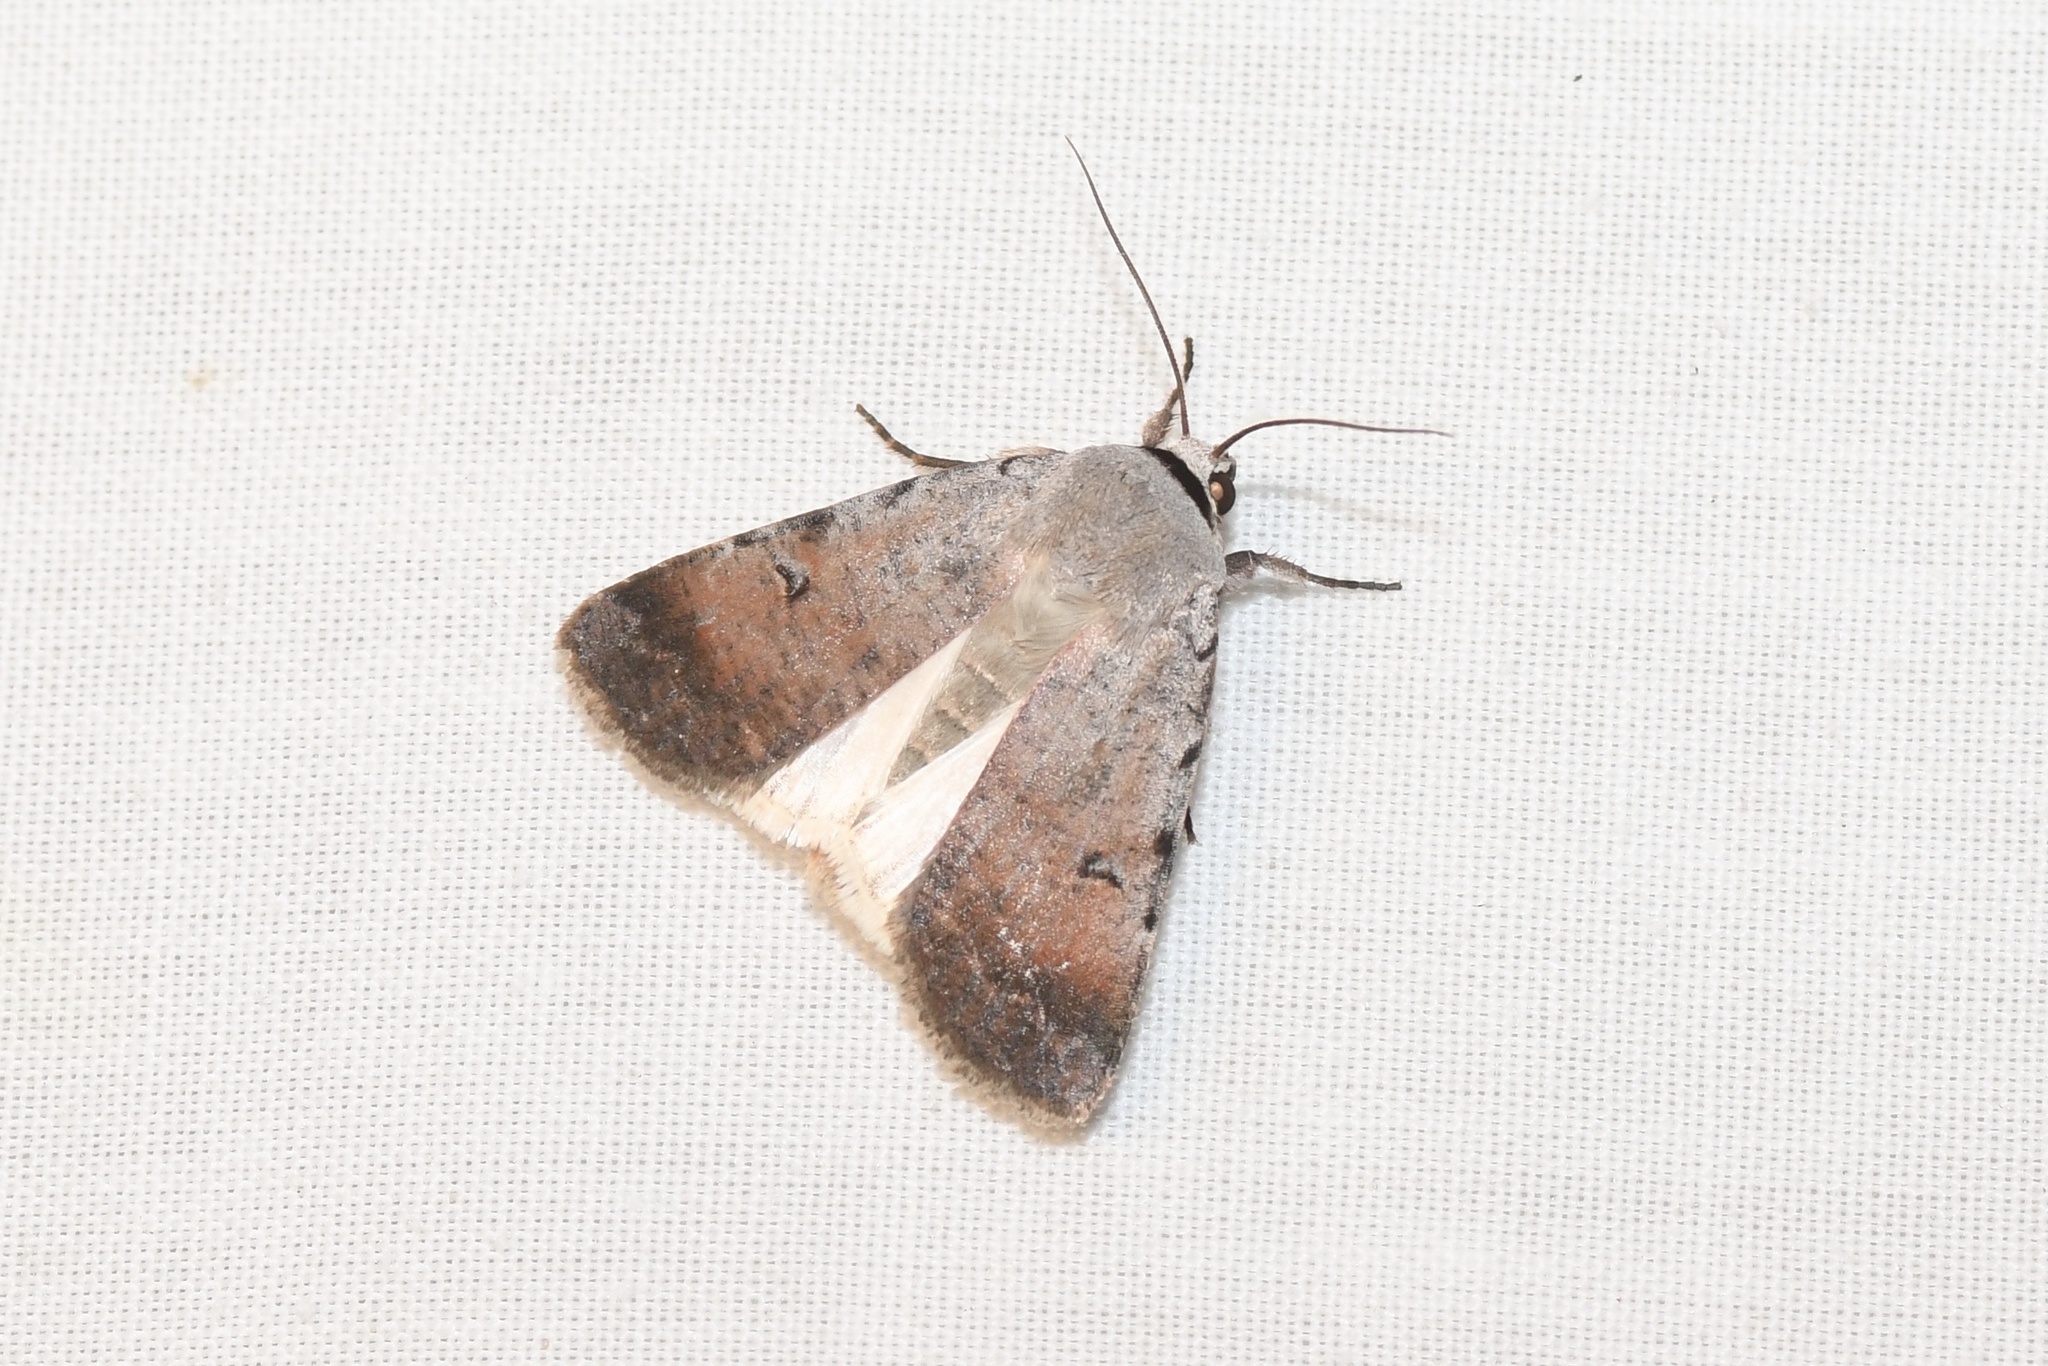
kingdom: Animalia
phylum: Arthropoda
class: Insecta
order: Lepidoptera
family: Noctuidae
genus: Anicla
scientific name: Anicla illapsa
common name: Snowy dart
